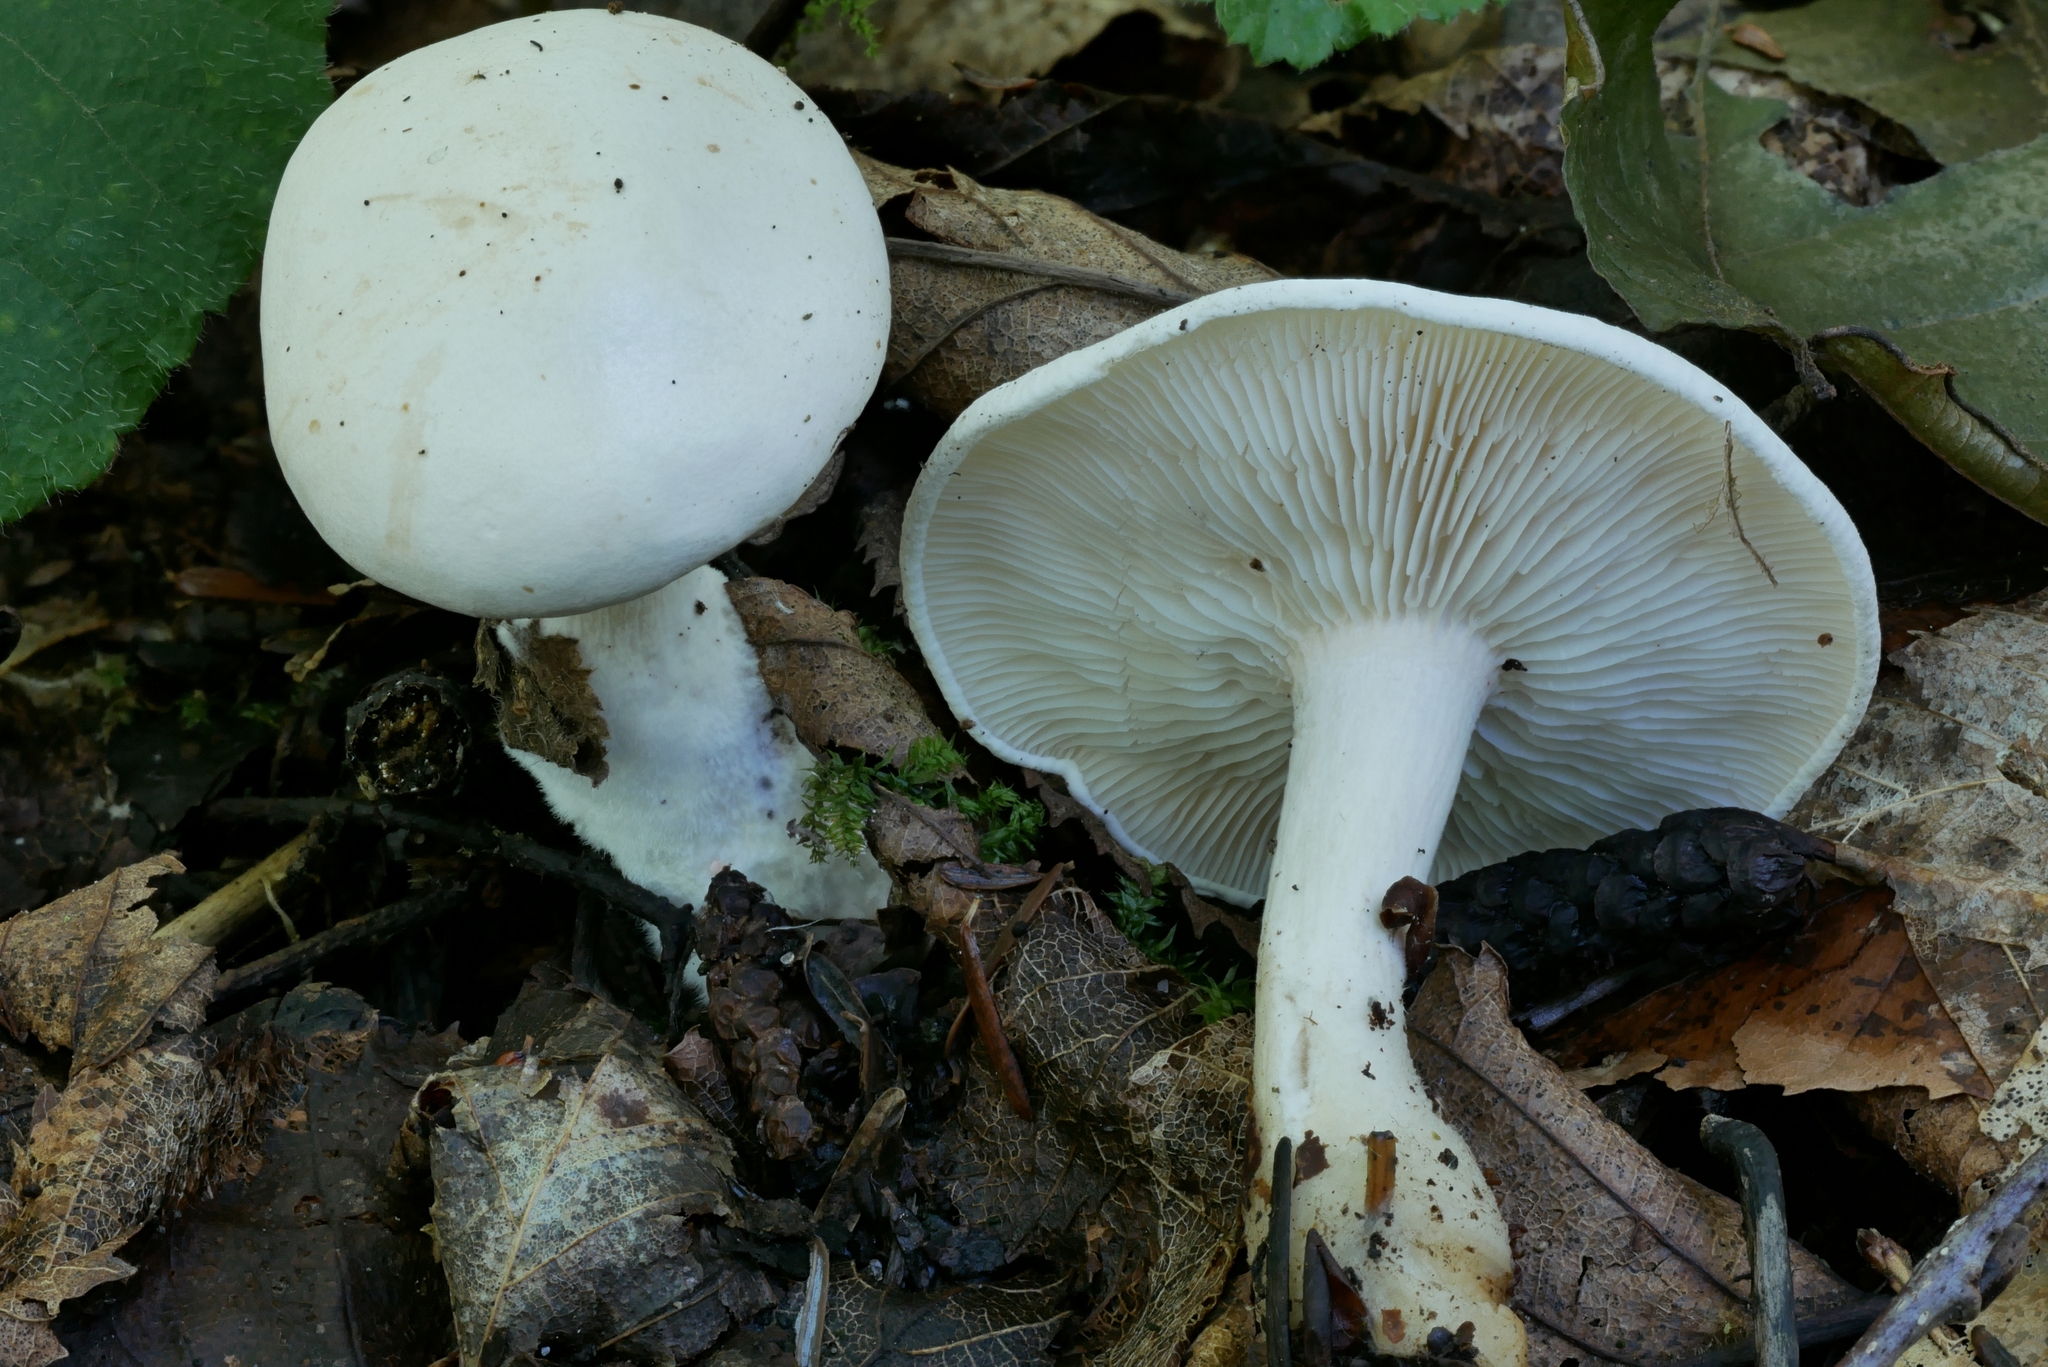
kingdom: Fungi
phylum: Basidiomycota
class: Agaricomycetes
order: Agaricales
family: Tricholomataceae
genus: Leucopaxillus
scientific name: Leucopaxillus albissimus
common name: Large white leucopax
